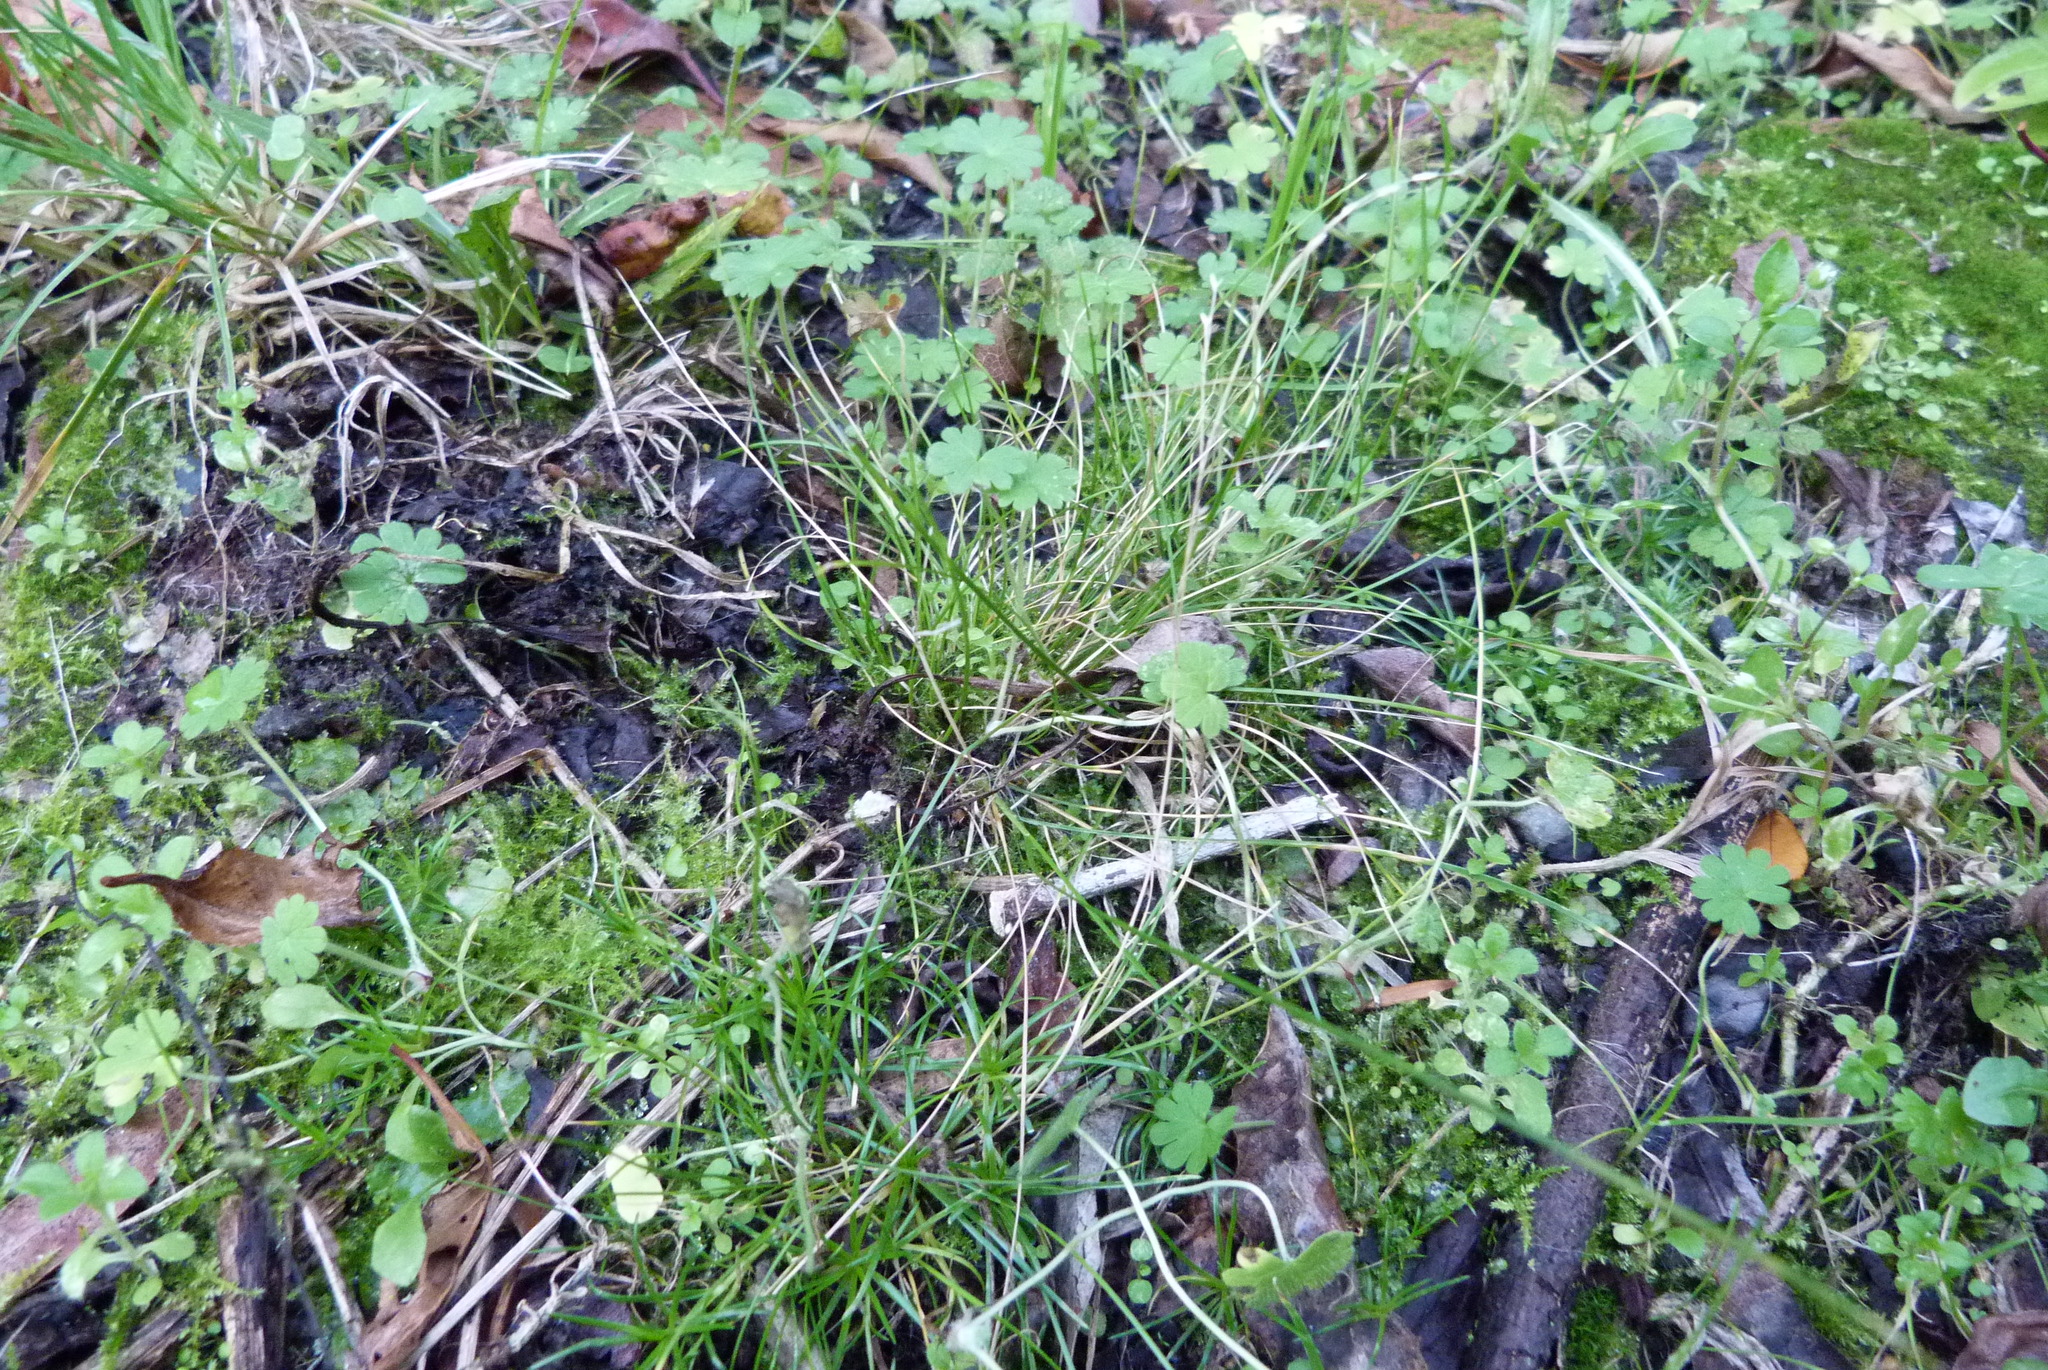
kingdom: Plantae
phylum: Tracheophyta
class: Liliopsida
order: Poales
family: Poaceae
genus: Poa
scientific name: Poa imbecilla
